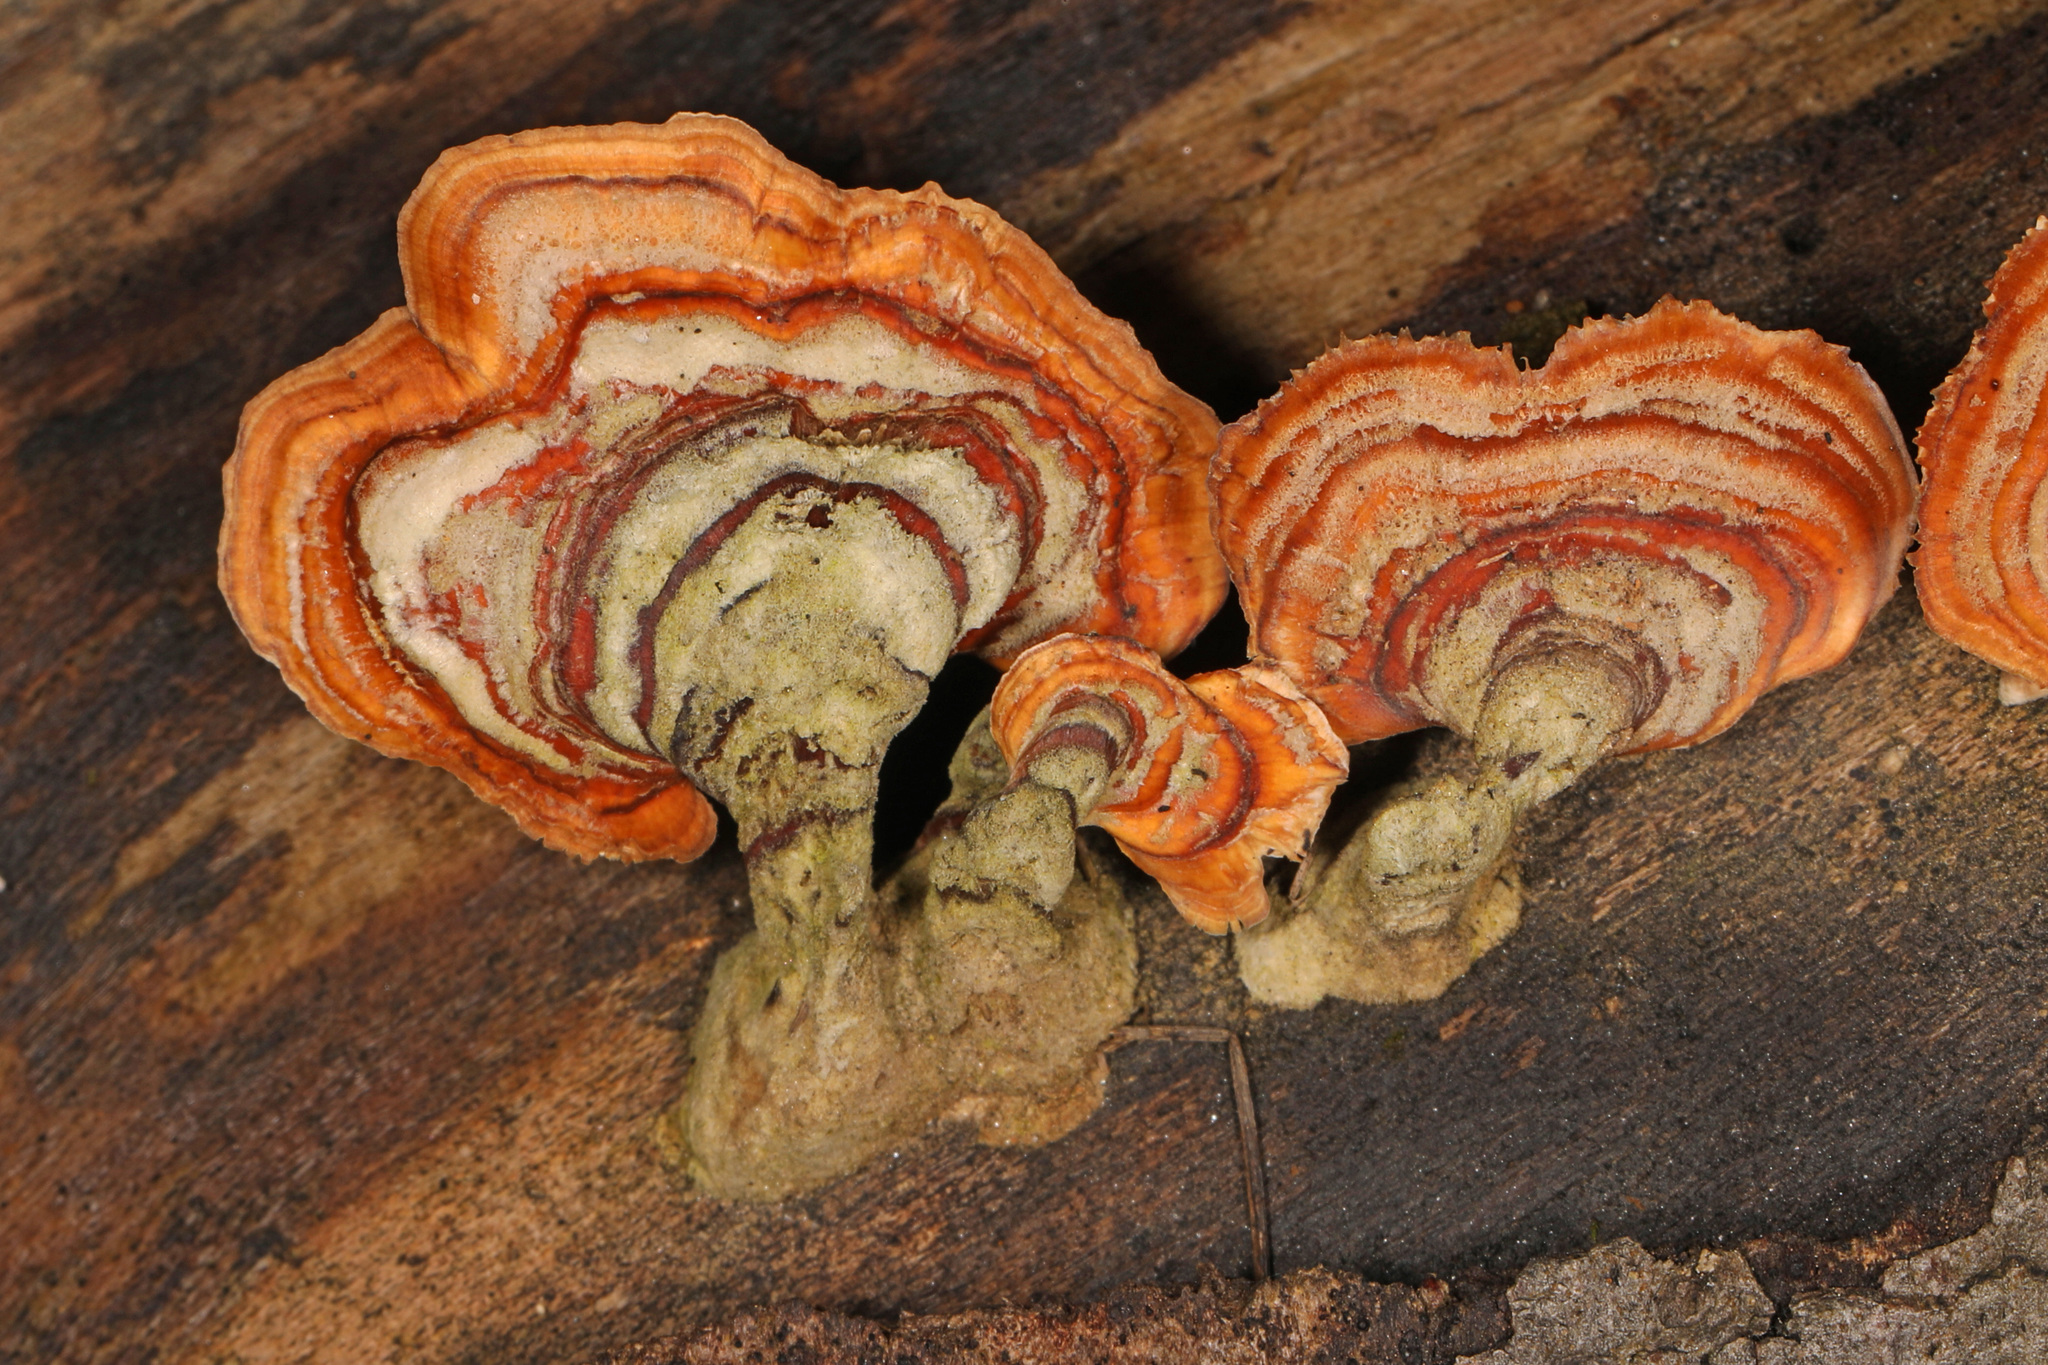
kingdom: Fungi
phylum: Basidiomycota
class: Agaricomycetes
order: Russulales
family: Stereaceae
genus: Stereum
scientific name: Stereum lobatum
